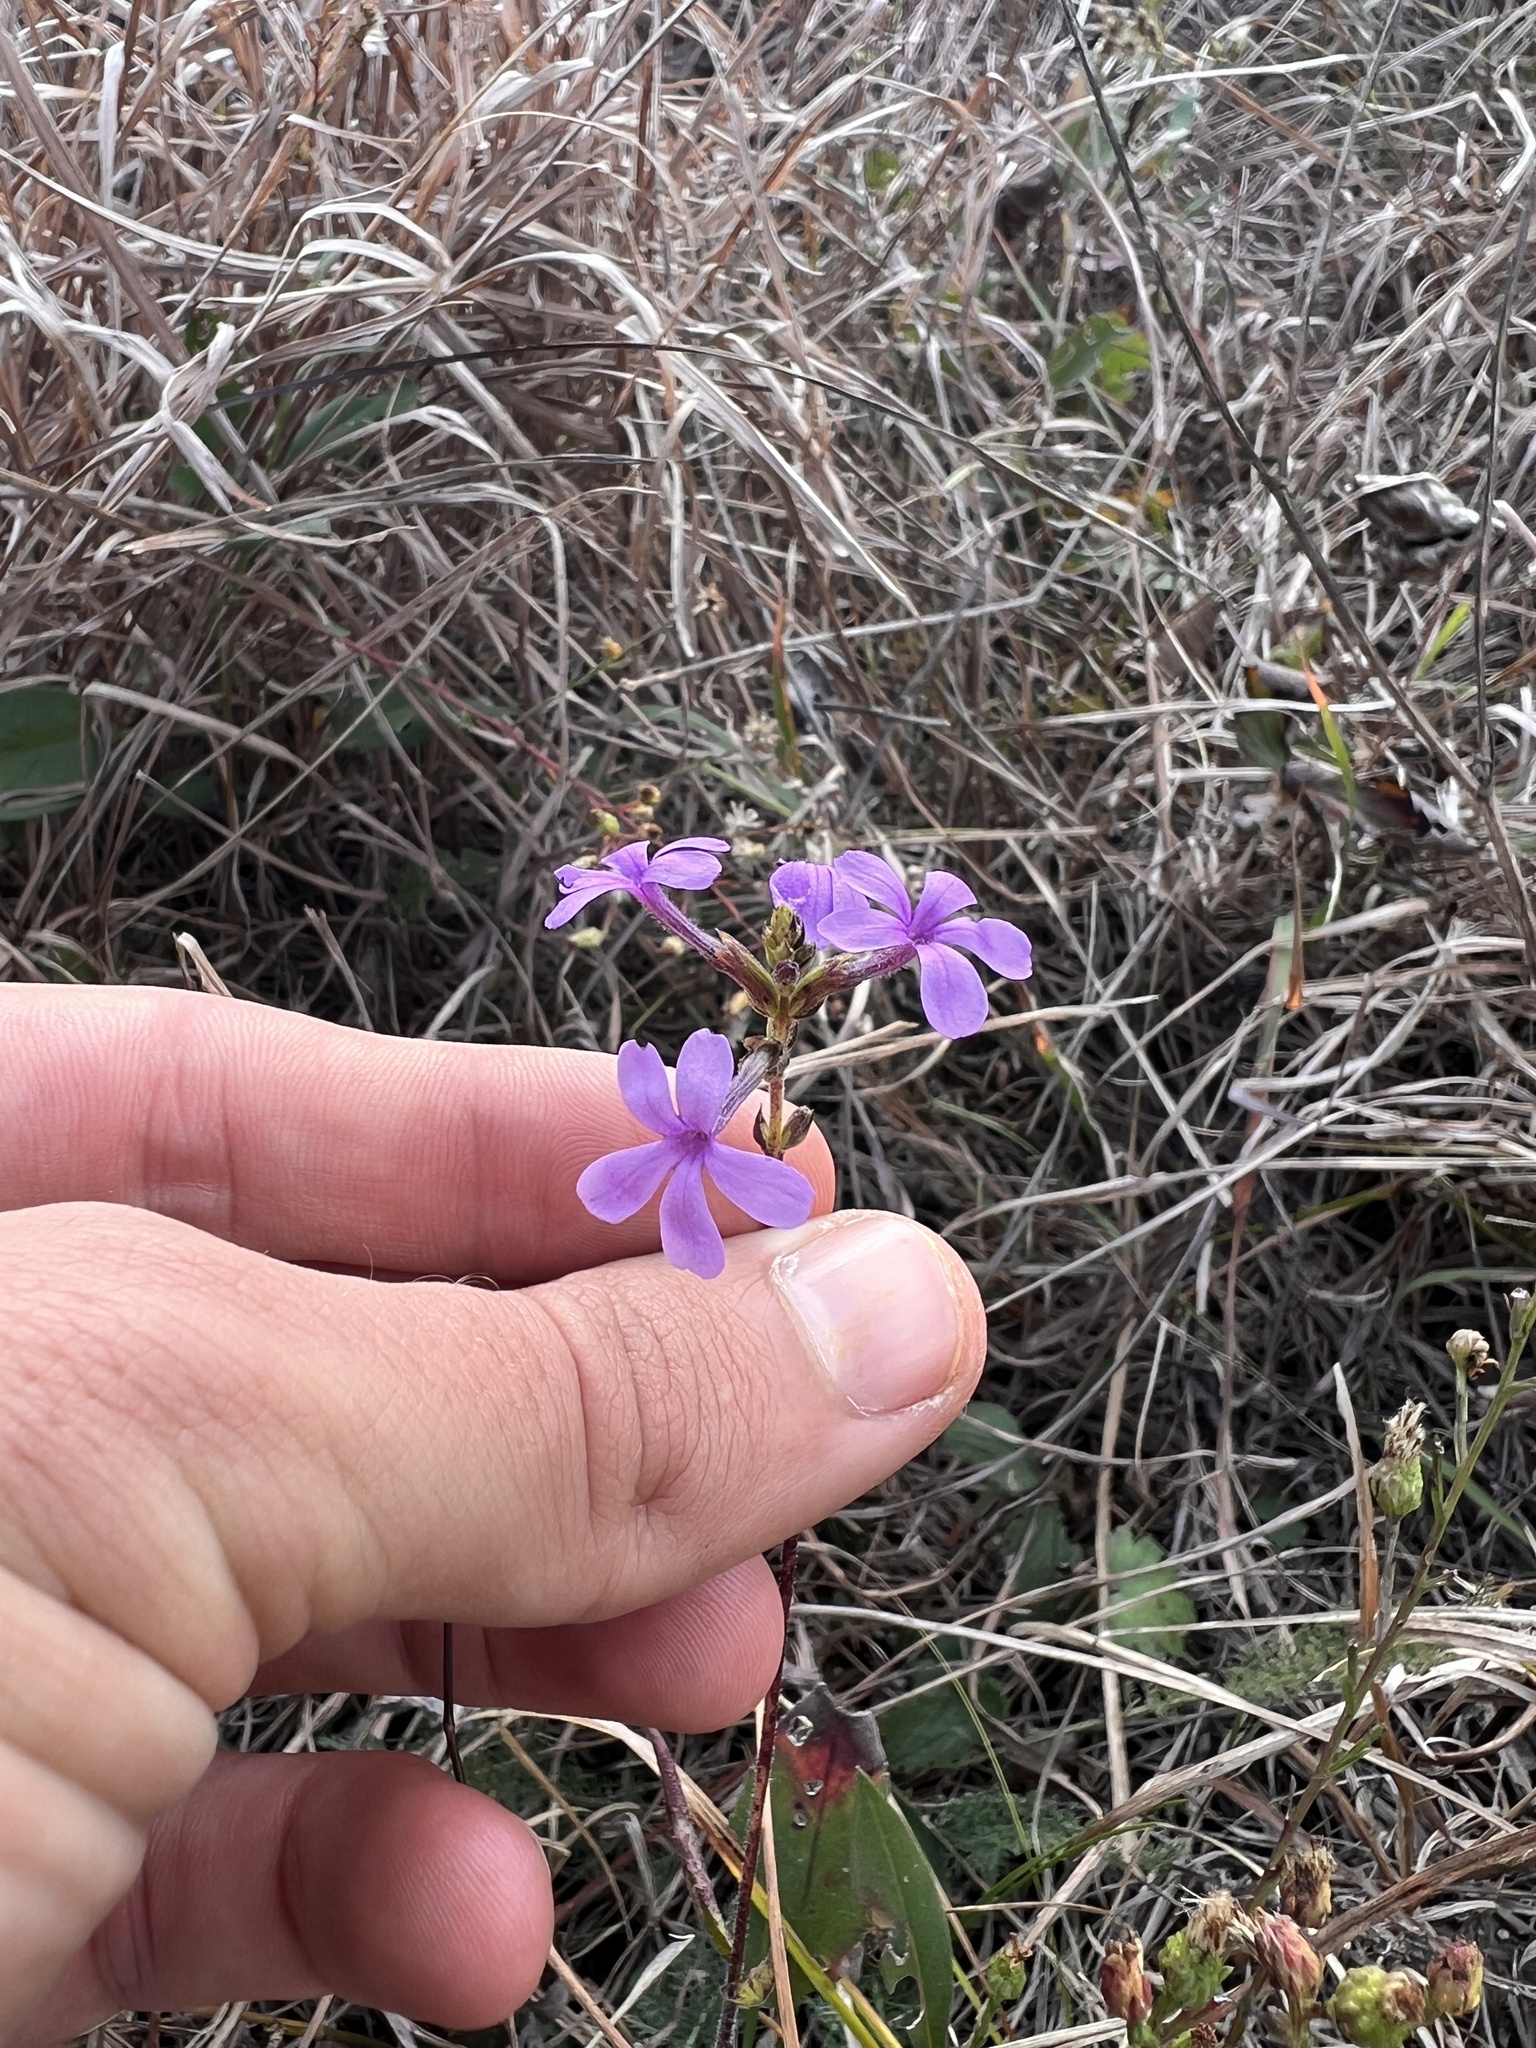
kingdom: Plantae
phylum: Tracheophyta
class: Magnoliopsida
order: Lamiales
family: Orobanchaceae
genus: Buchnera
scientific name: Buchnera americana
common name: American bluehearts
